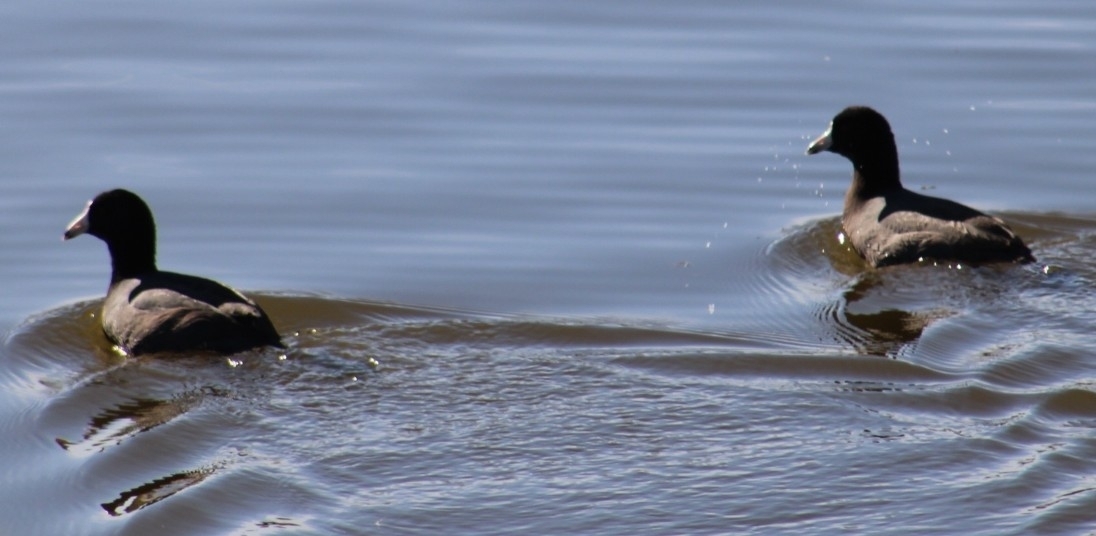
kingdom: Animalia
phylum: Chordata
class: Aves
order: Gruiformes
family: Rallidae
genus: Fulica
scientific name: Fulica americana
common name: American coot
